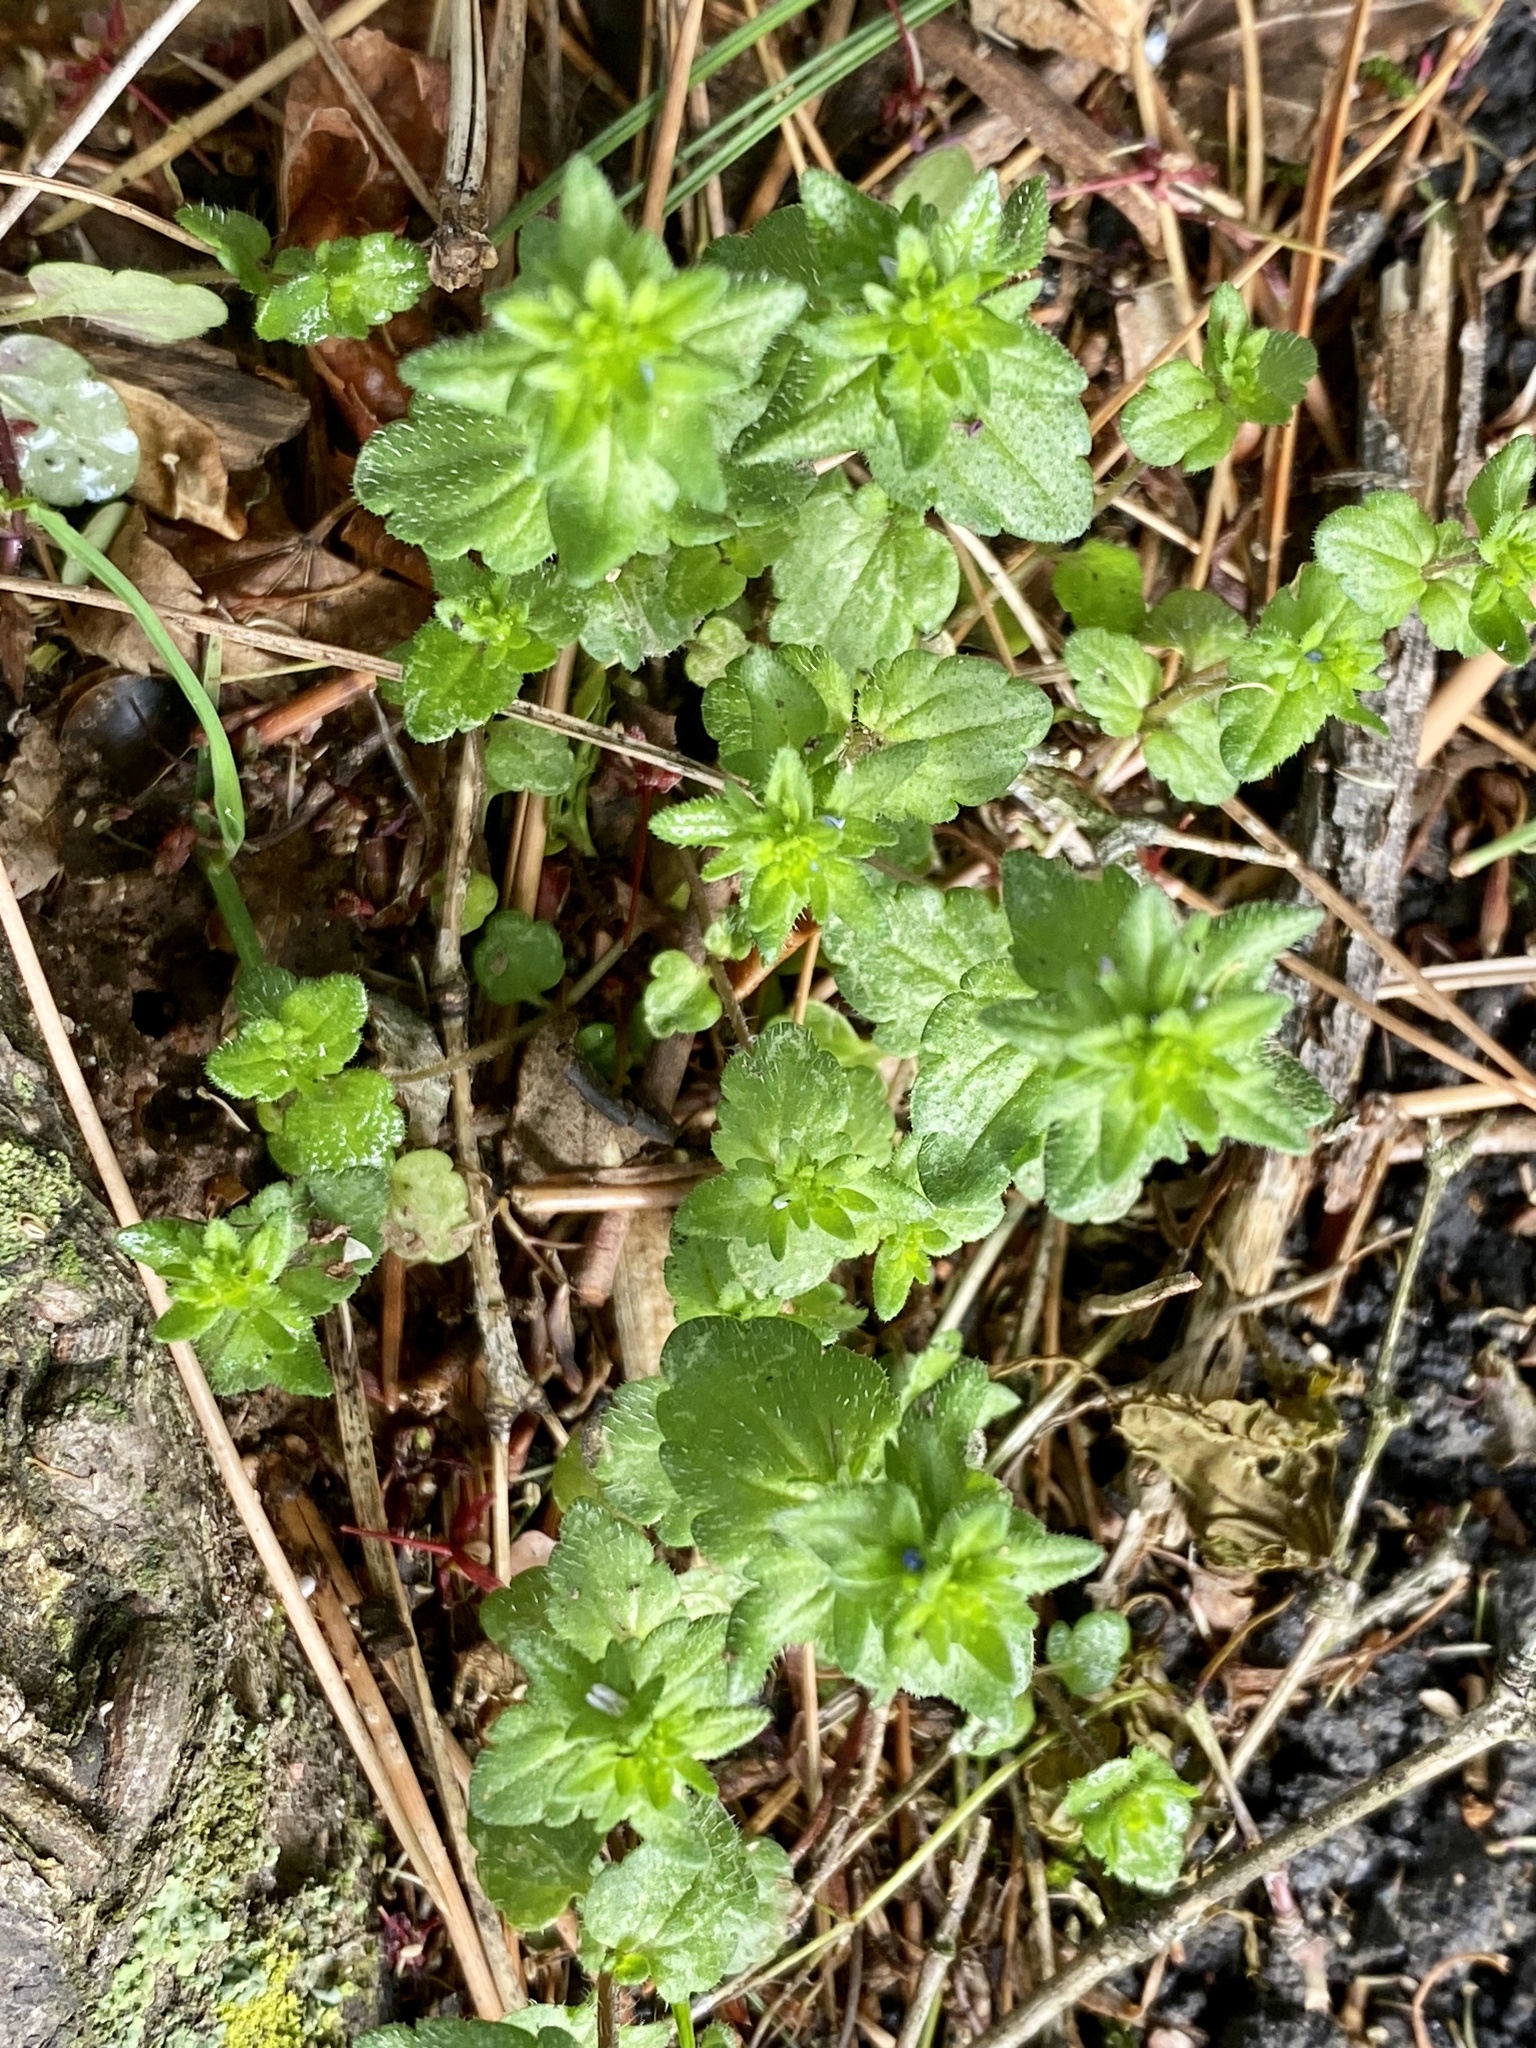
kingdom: Plantae
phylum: Tracheophyta
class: Magnoliopsida
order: Lamiales
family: Plantaginaceae
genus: Veronica
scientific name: Veronica arvensis
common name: Corn speedwell
